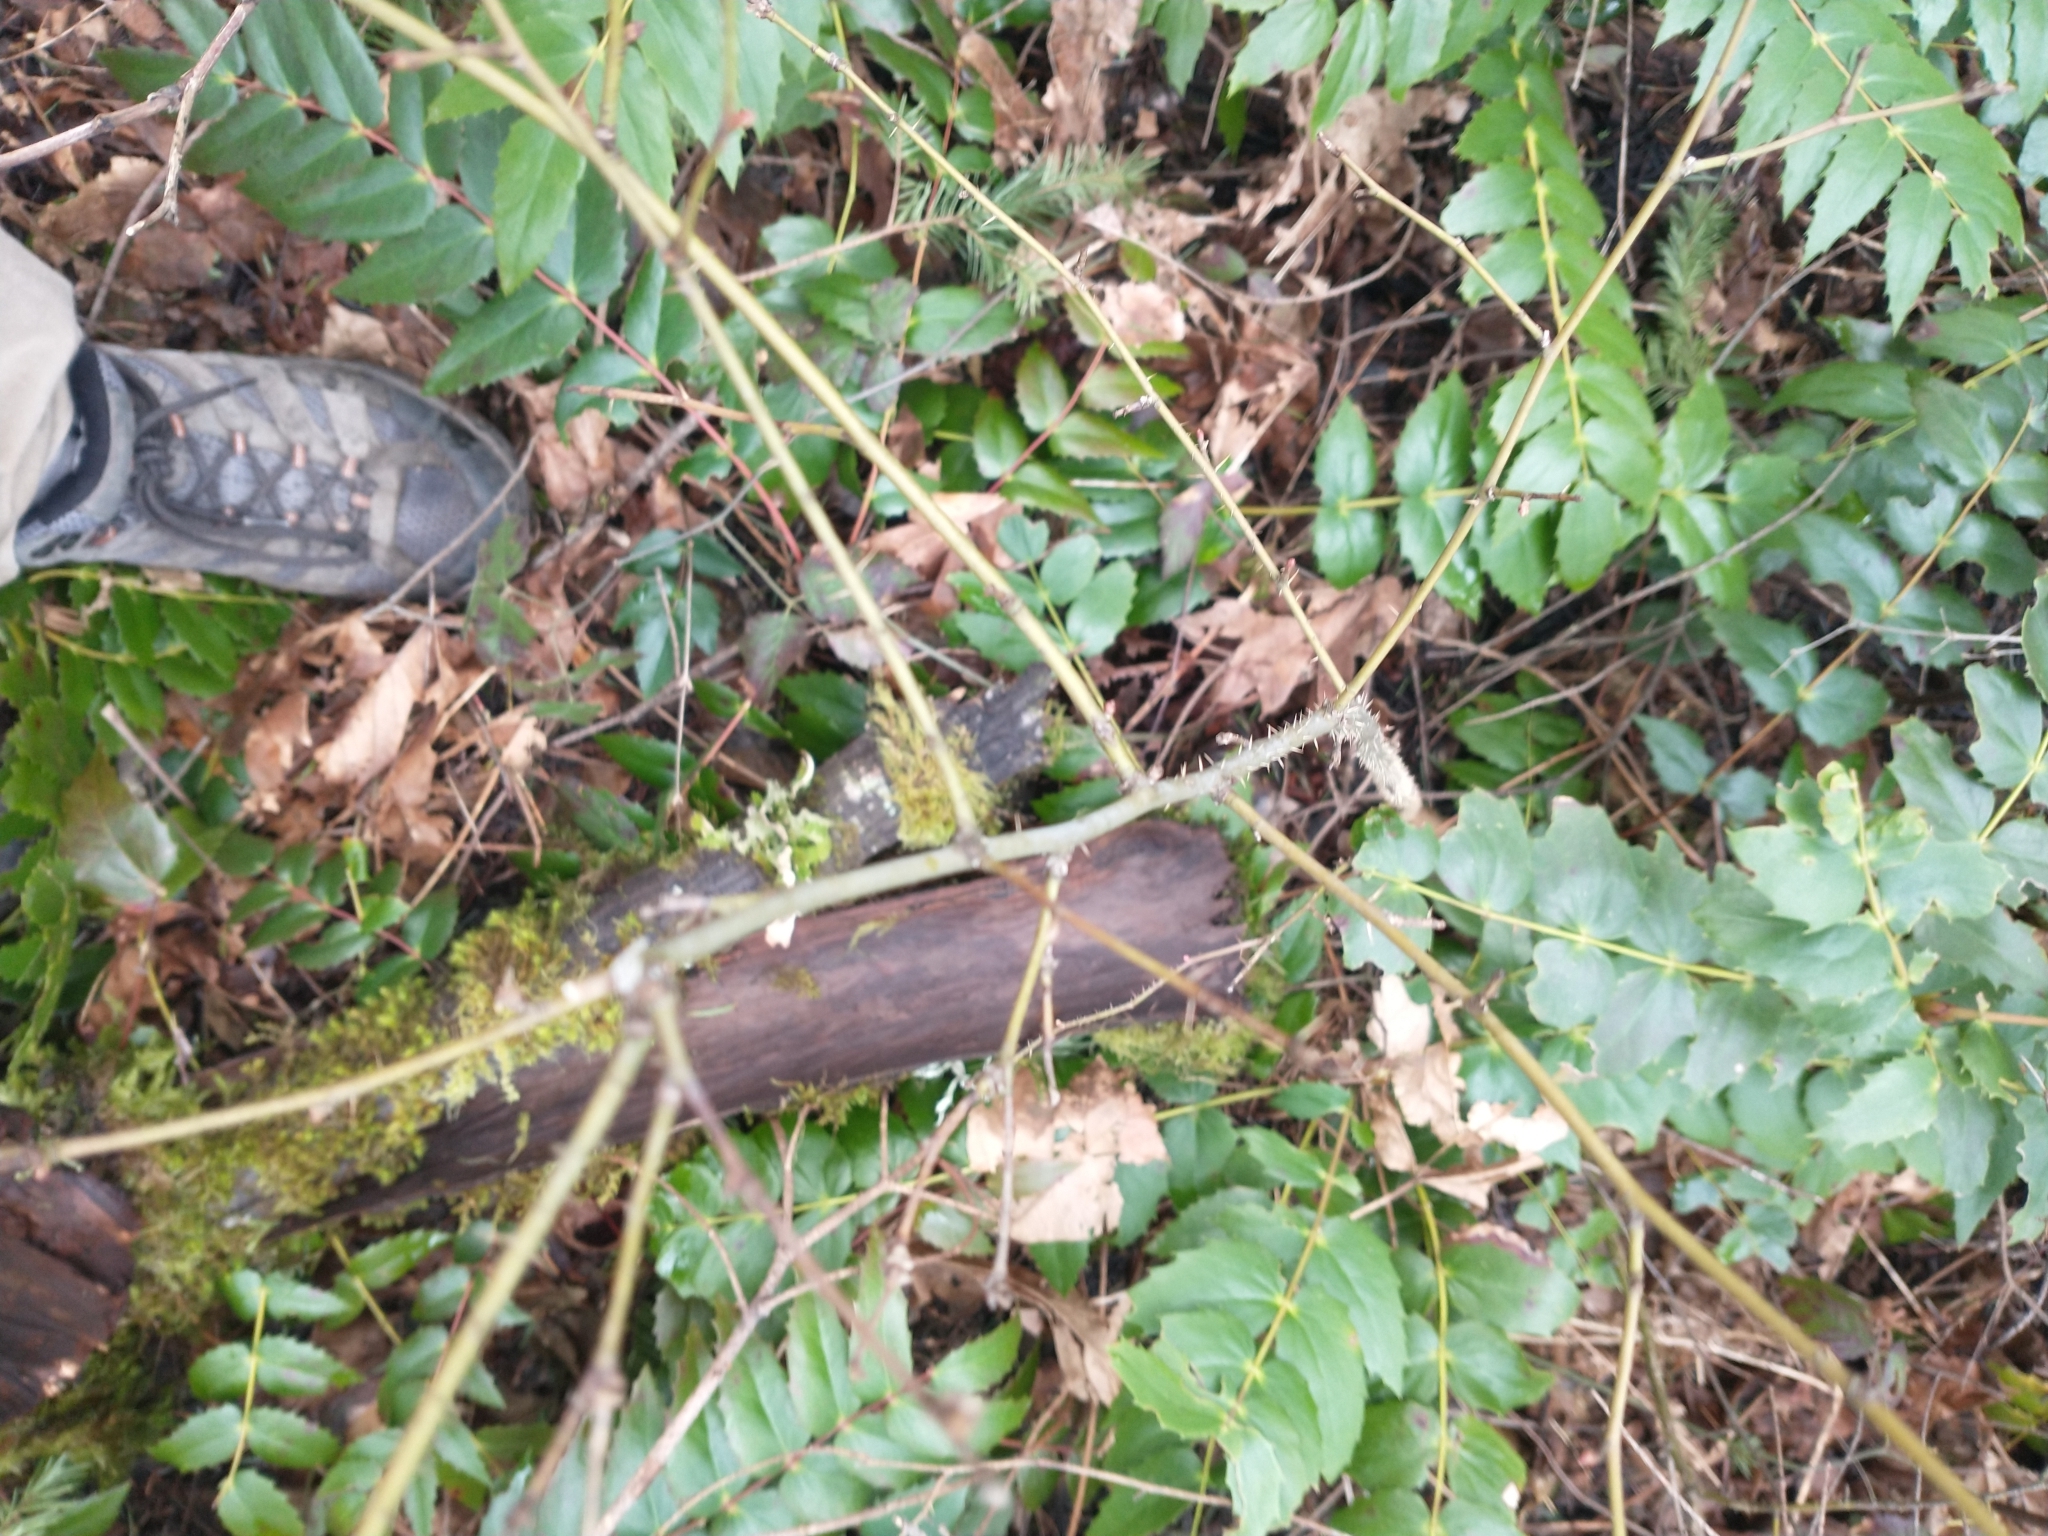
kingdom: Plantae
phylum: Tracheophyta
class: Magnoliopsida
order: Rosales
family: Rosaceae
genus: Rosa
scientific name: Rosa gymnocarpa
